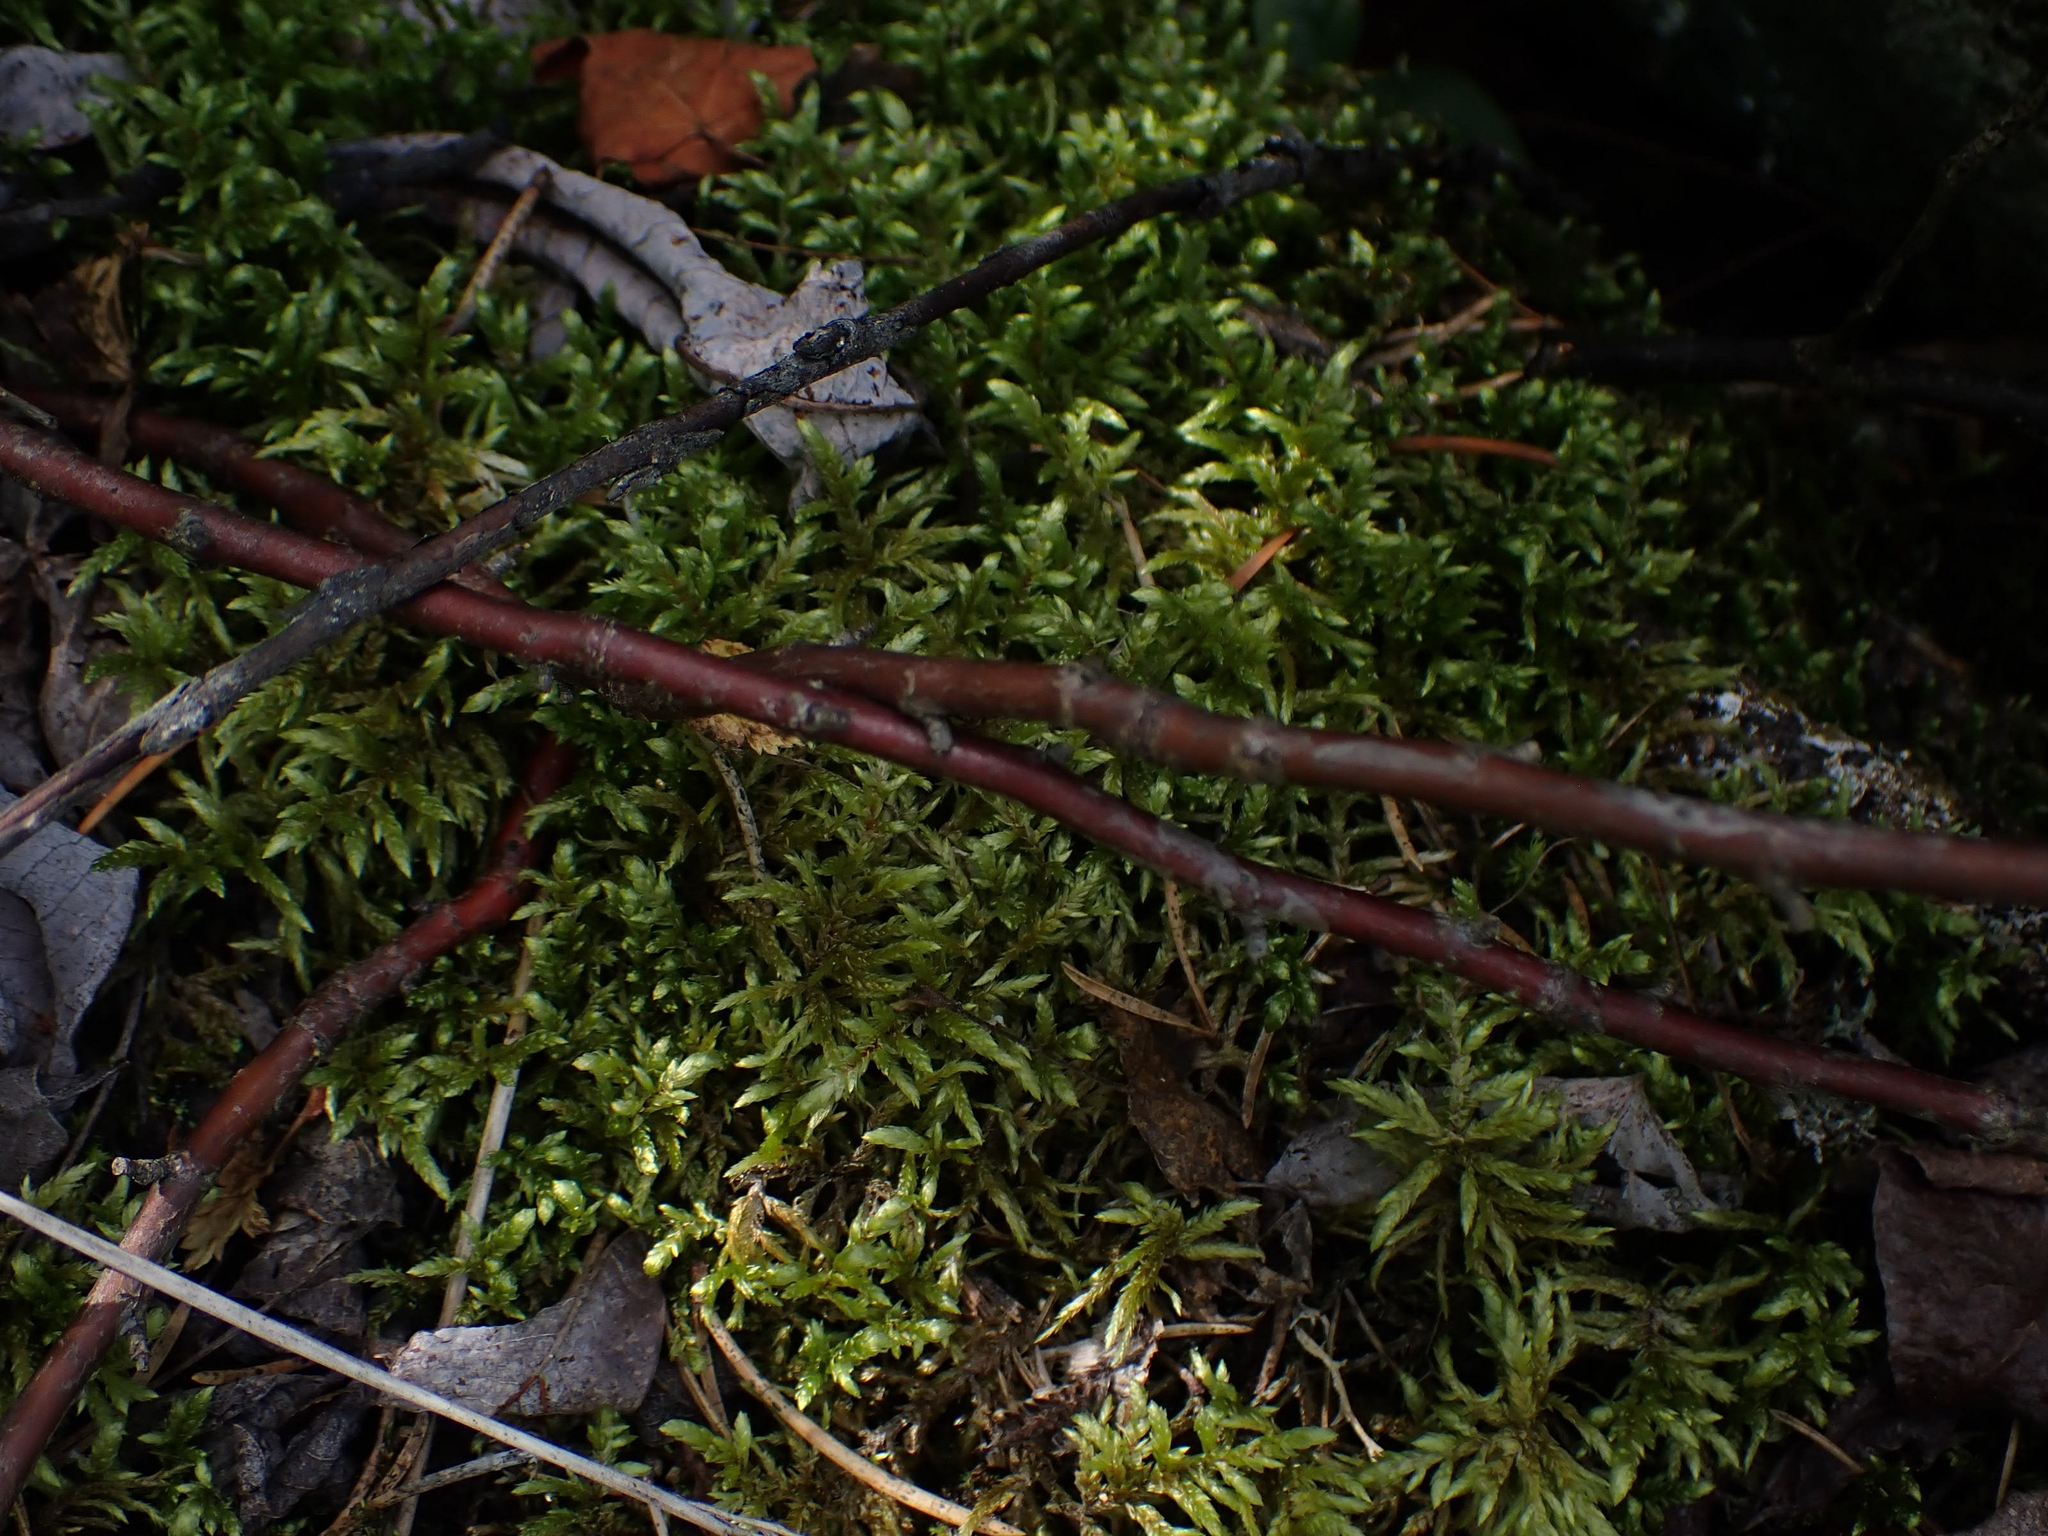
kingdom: Plantae
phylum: Bryophyta
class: Bryopsida
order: Hypnales
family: Hylocomiaceae
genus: Pleurozium
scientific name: Pleurozium schreberi
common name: Red-stemmed feather moss
